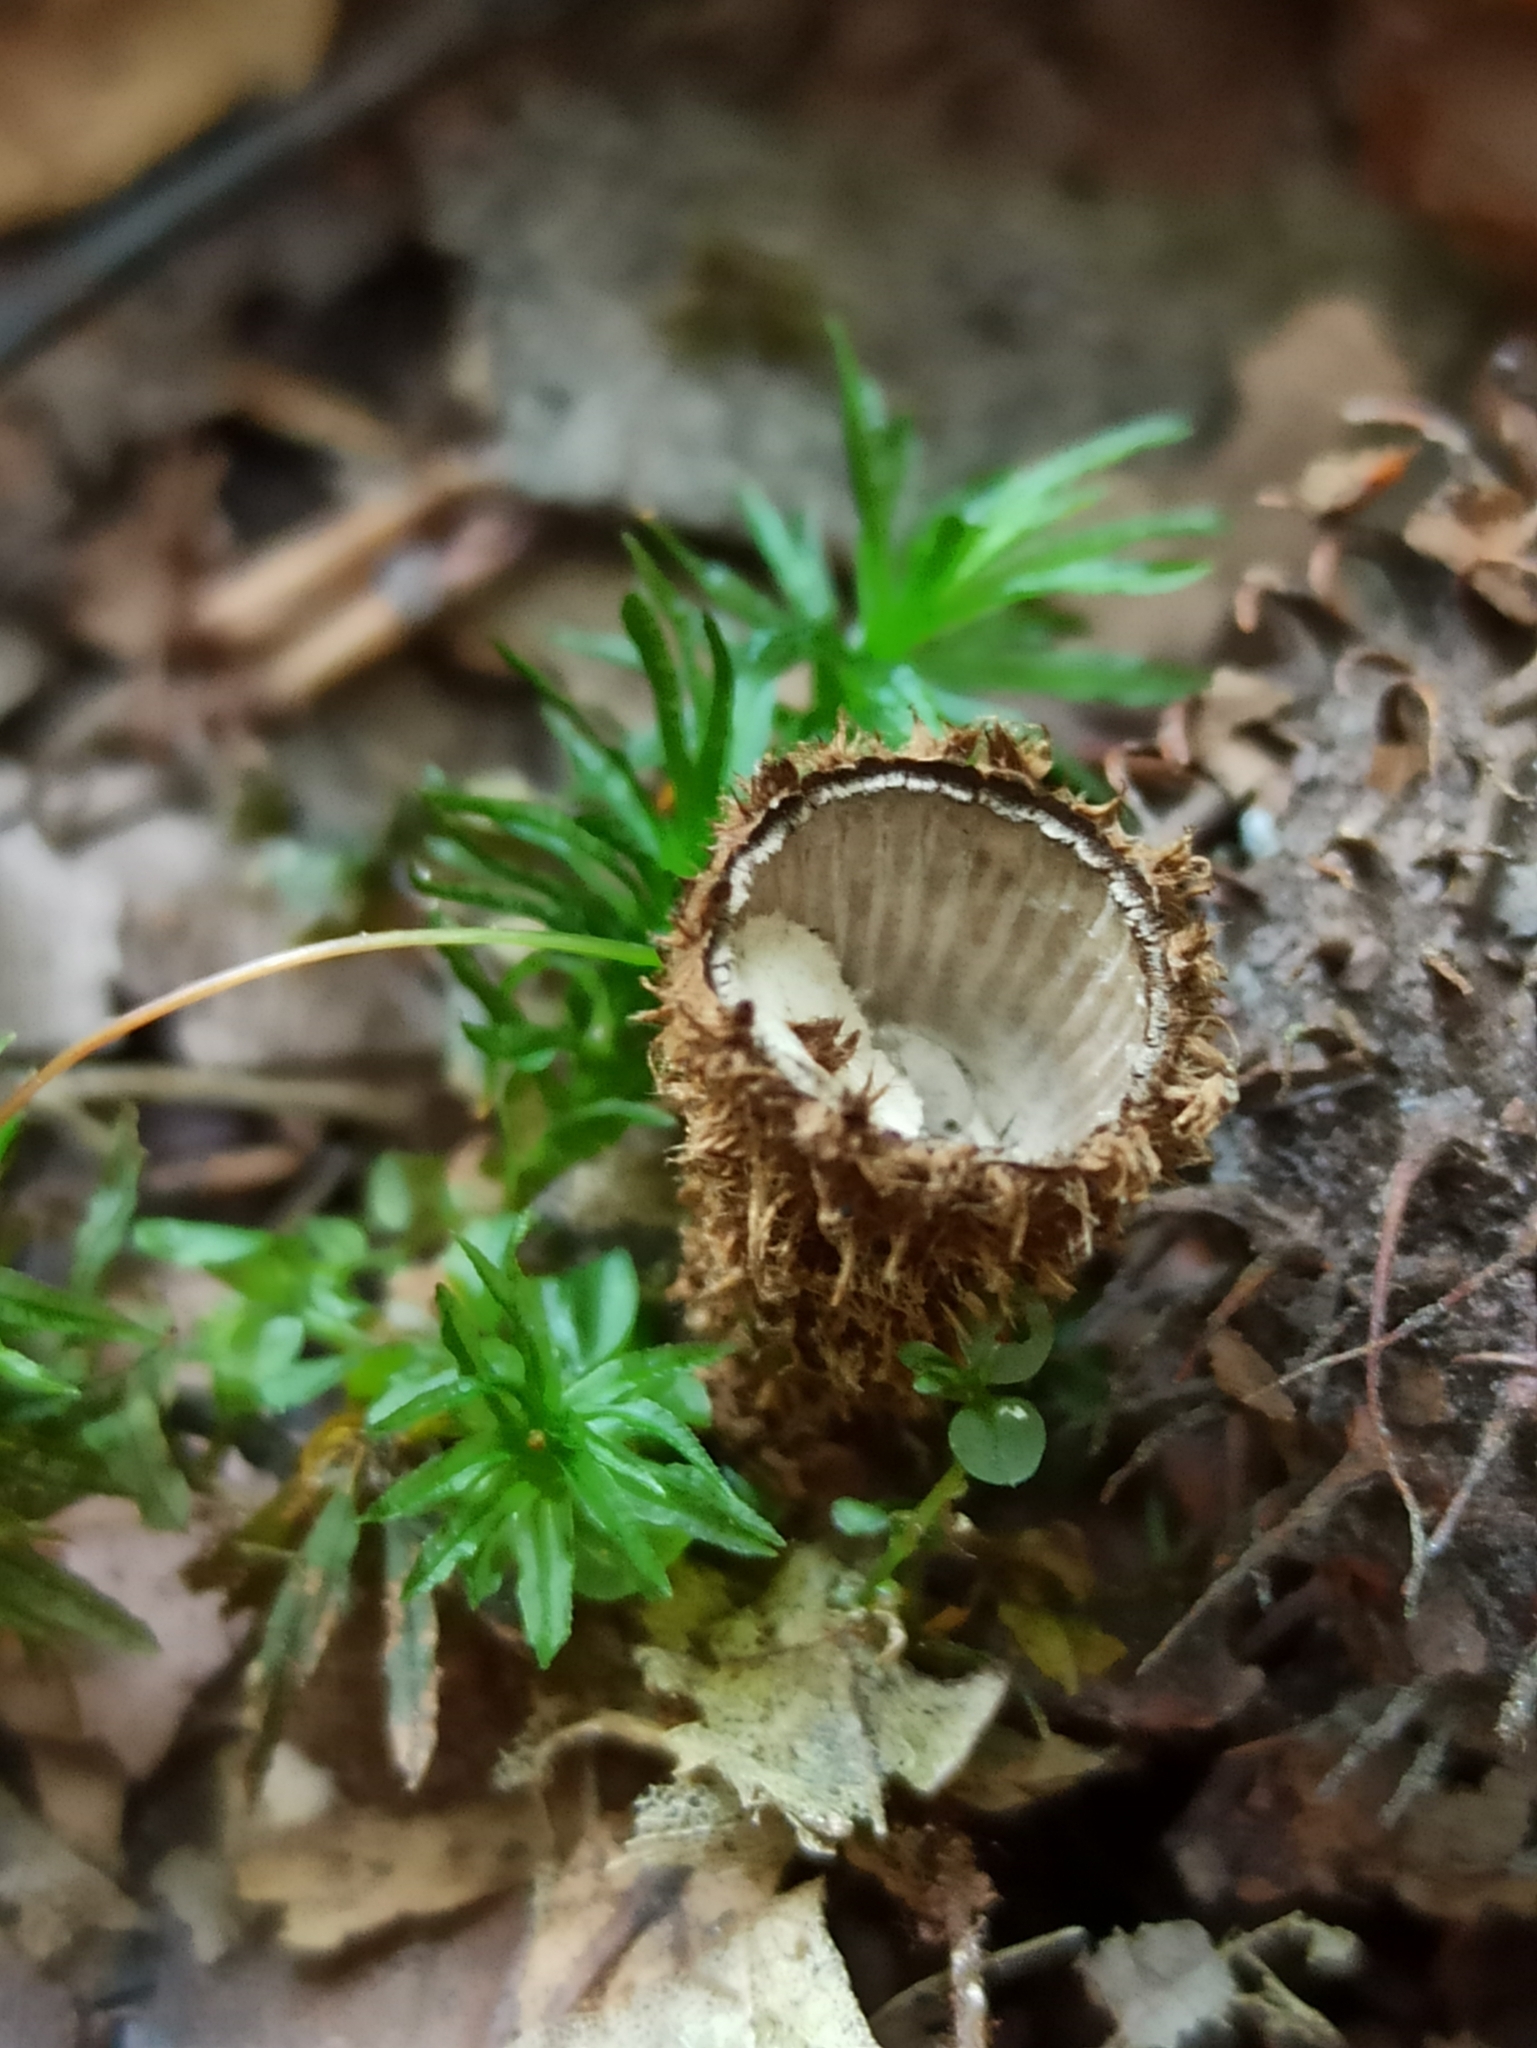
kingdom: Fungi
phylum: Basidiomycota
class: Agaricomycetes
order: Agaricales
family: Agaricaceae
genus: Cyathus
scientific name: Cyathus striatus
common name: Fluted bird's nest
